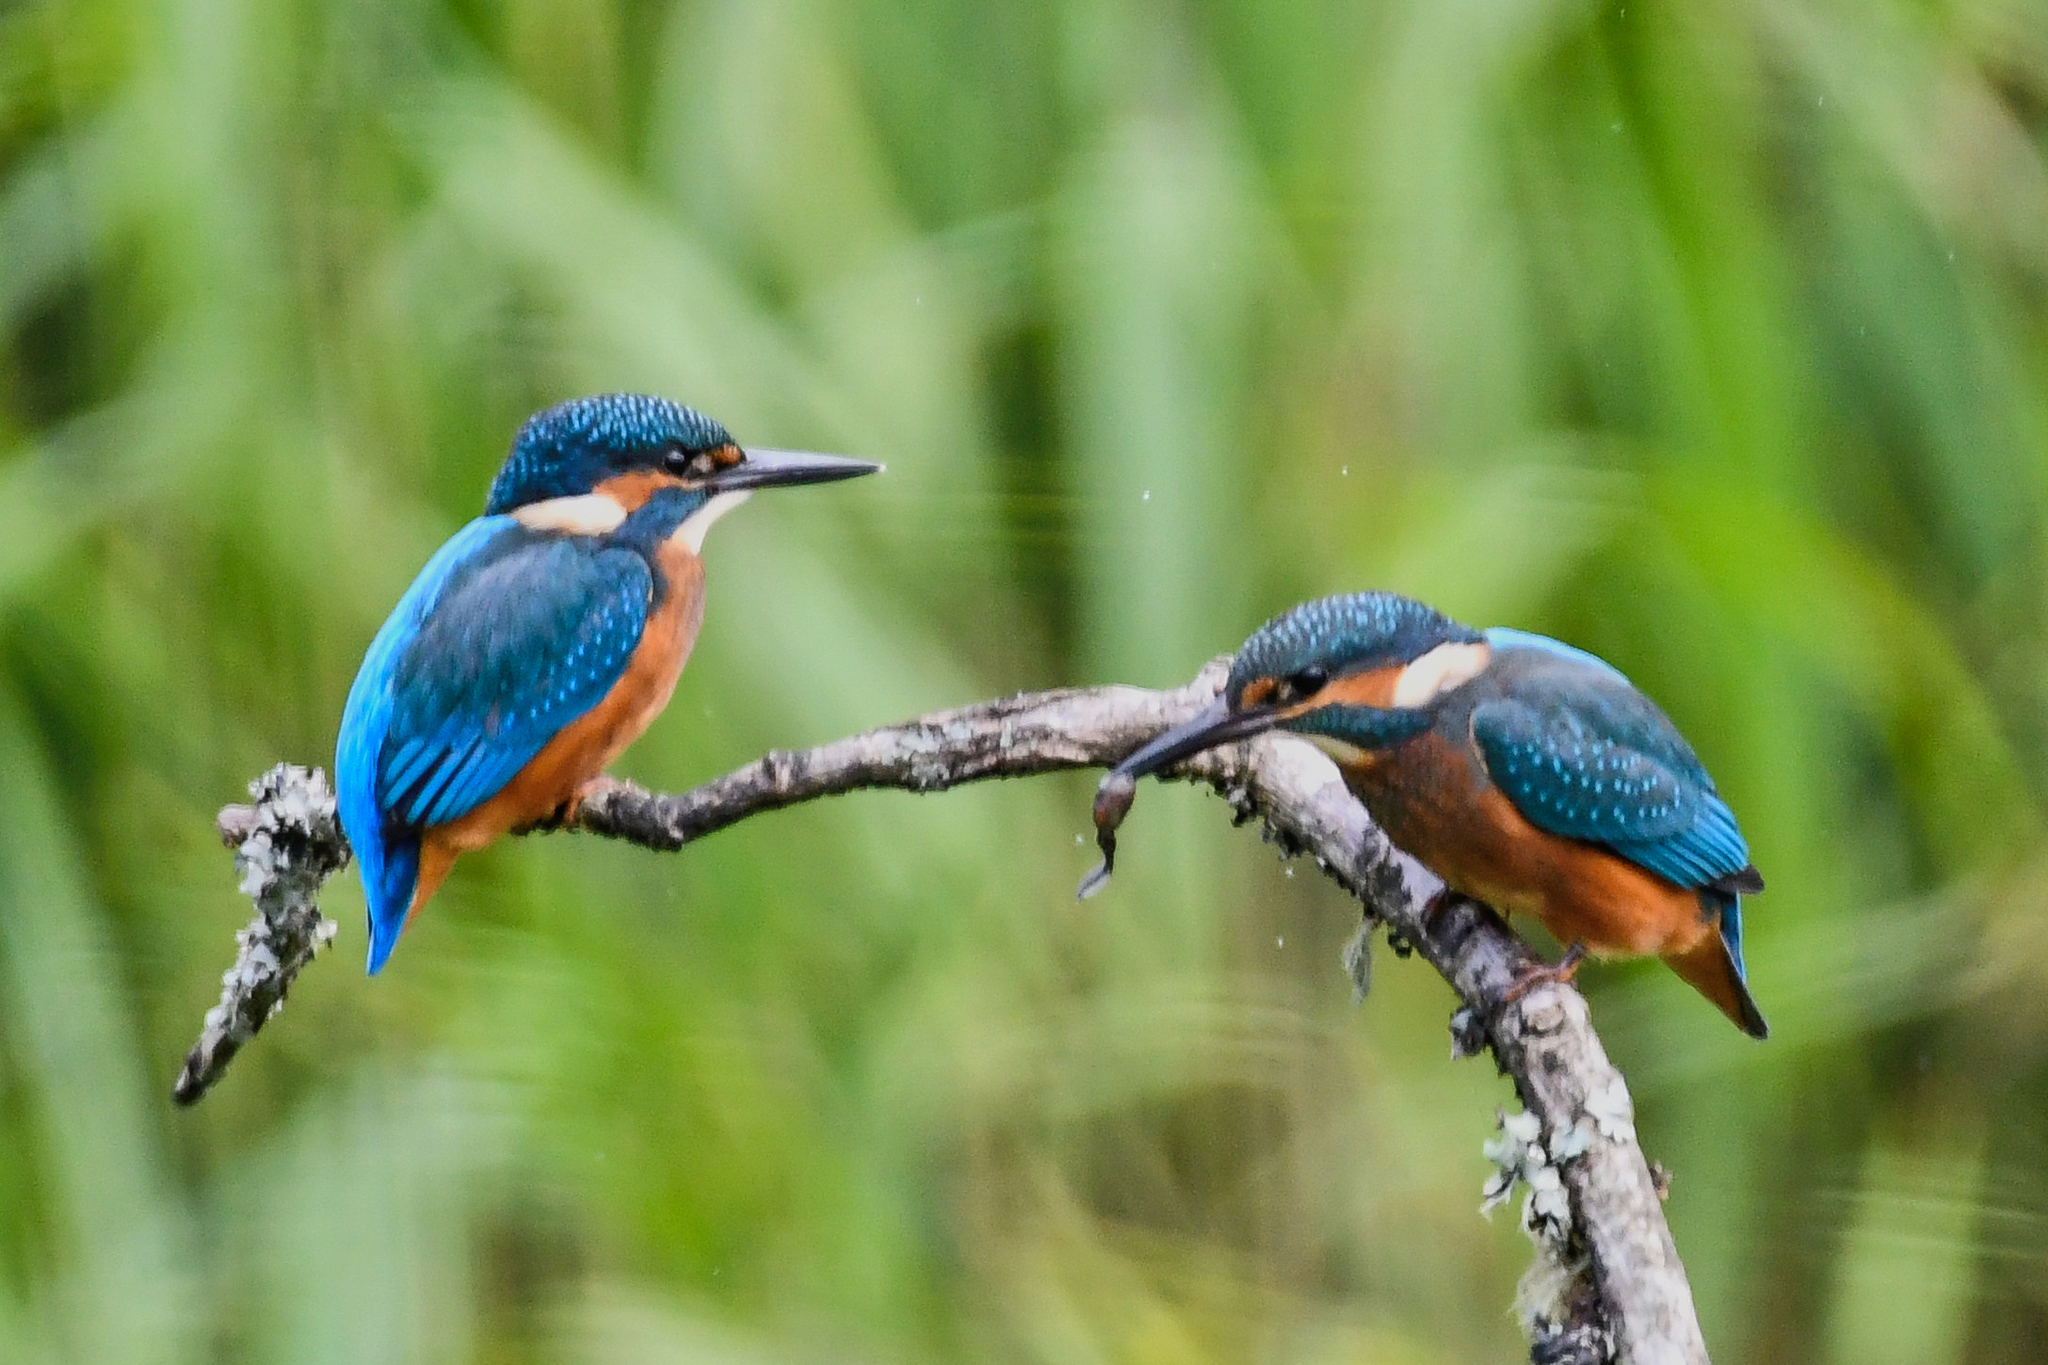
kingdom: Animalia
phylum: Chordata
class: Aves
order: Coraciiformes
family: Alcedinidae
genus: Alcedo
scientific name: Alcedo atthis
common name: Common kingfisher
